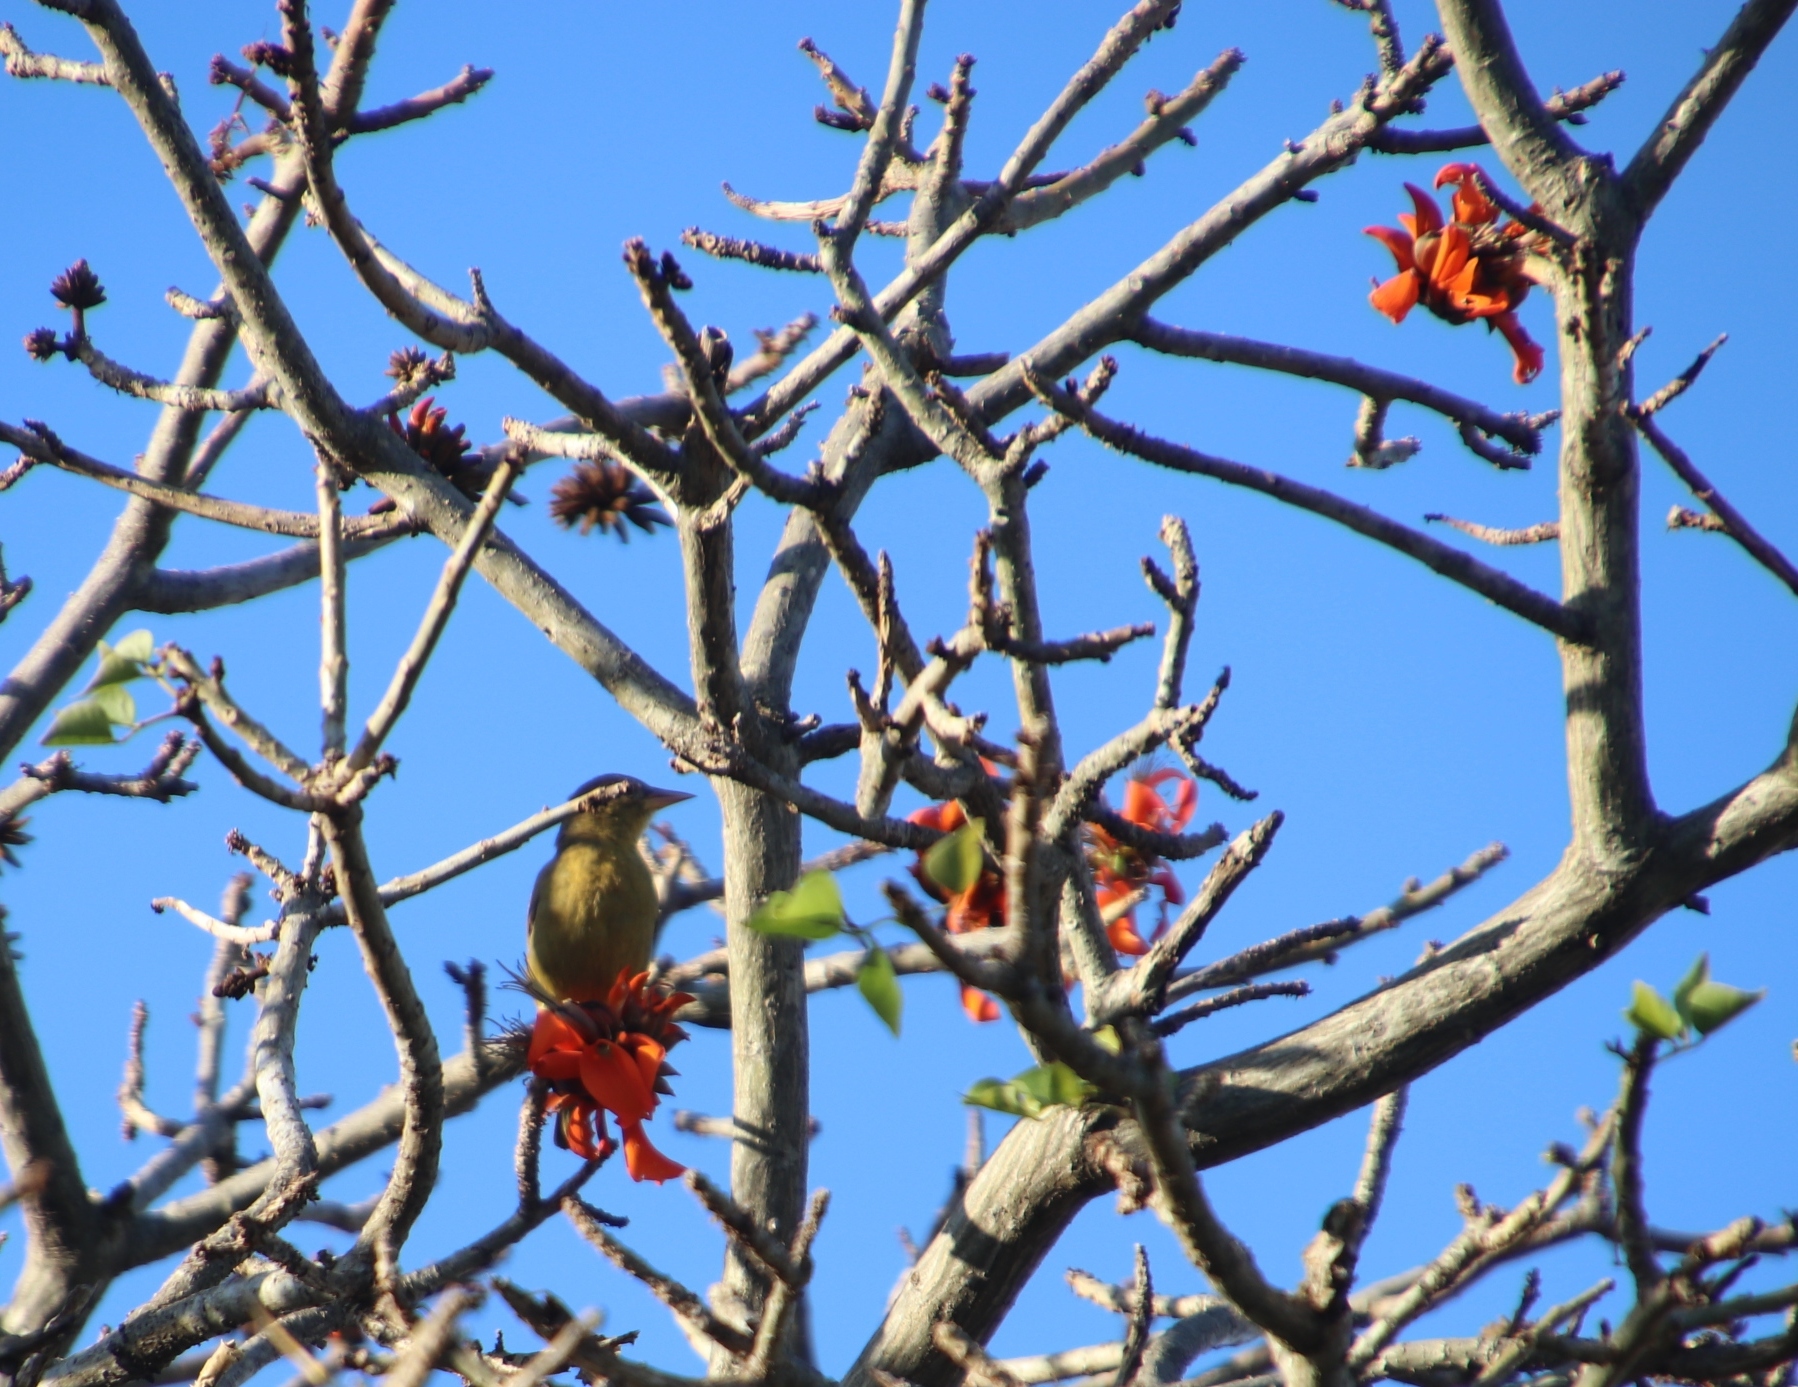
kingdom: Animalia
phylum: Chordata
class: Aves
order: Passeriformes
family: Ploceidae
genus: Ploceus
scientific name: Ploceus capensis
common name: Cape weaver
